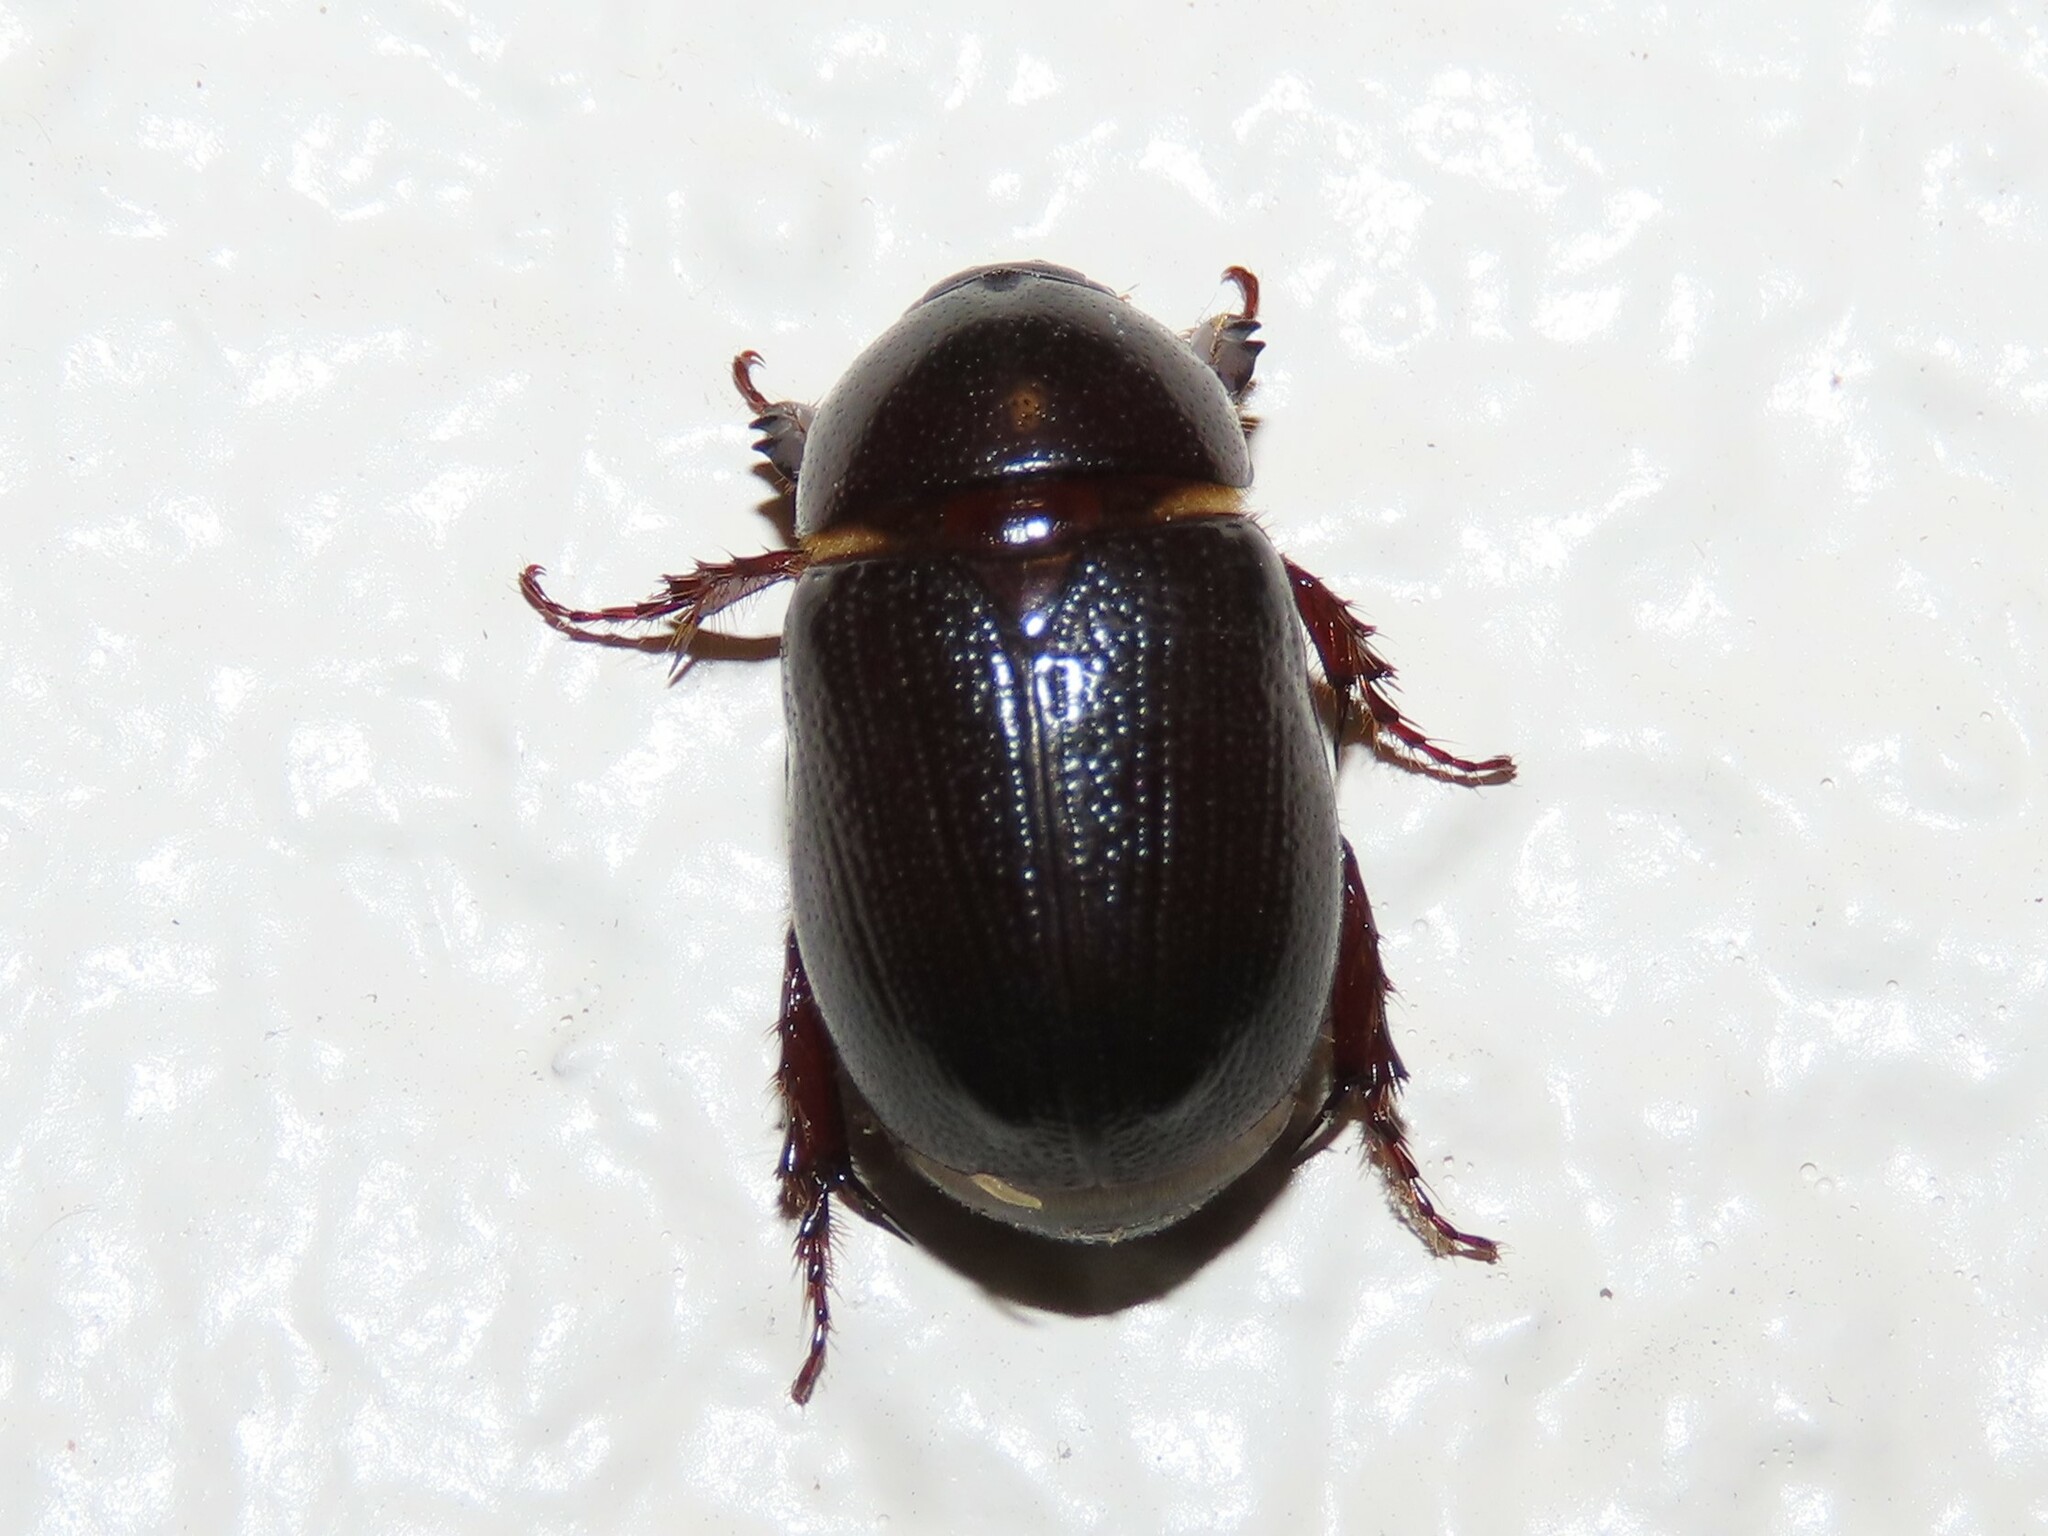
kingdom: Animalia
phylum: Arthropoda
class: Insecta
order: Coleoptera
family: Scarabaeidae
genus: Ligyrus
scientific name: Ligyrus gibbosus
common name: Carrot beetle
